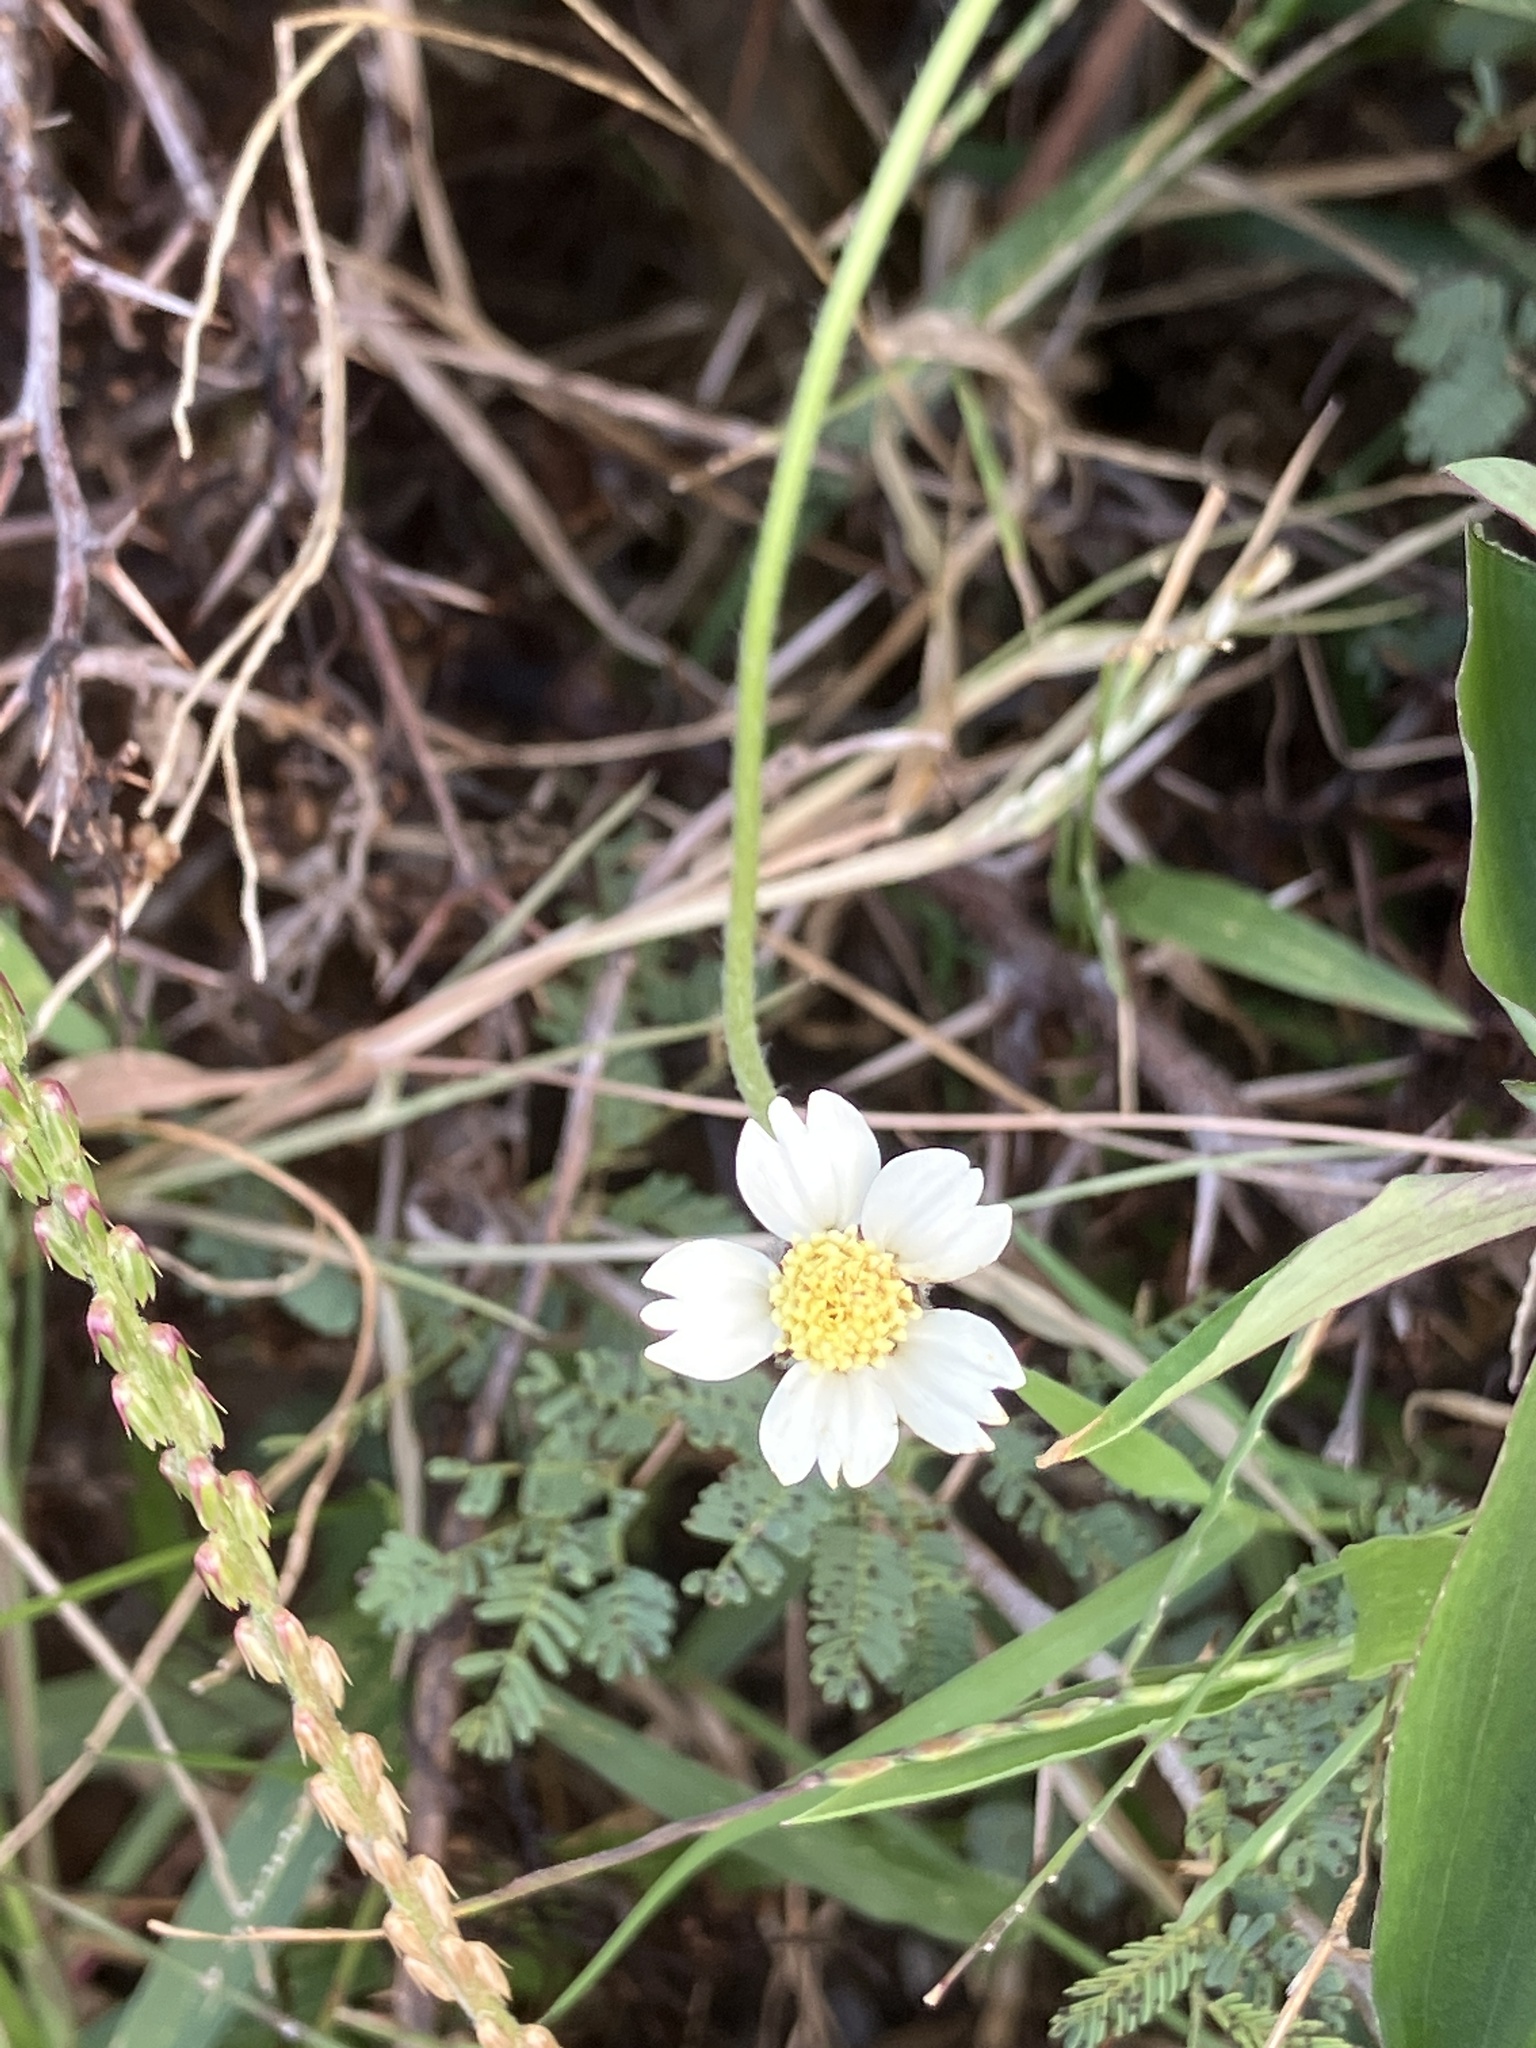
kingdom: Plantae
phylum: Tracheophyta
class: Magnoliopsida
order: Asterales
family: Asteraceae
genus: Tridax
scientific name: Tridax procumbens
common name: Coatbuttons
